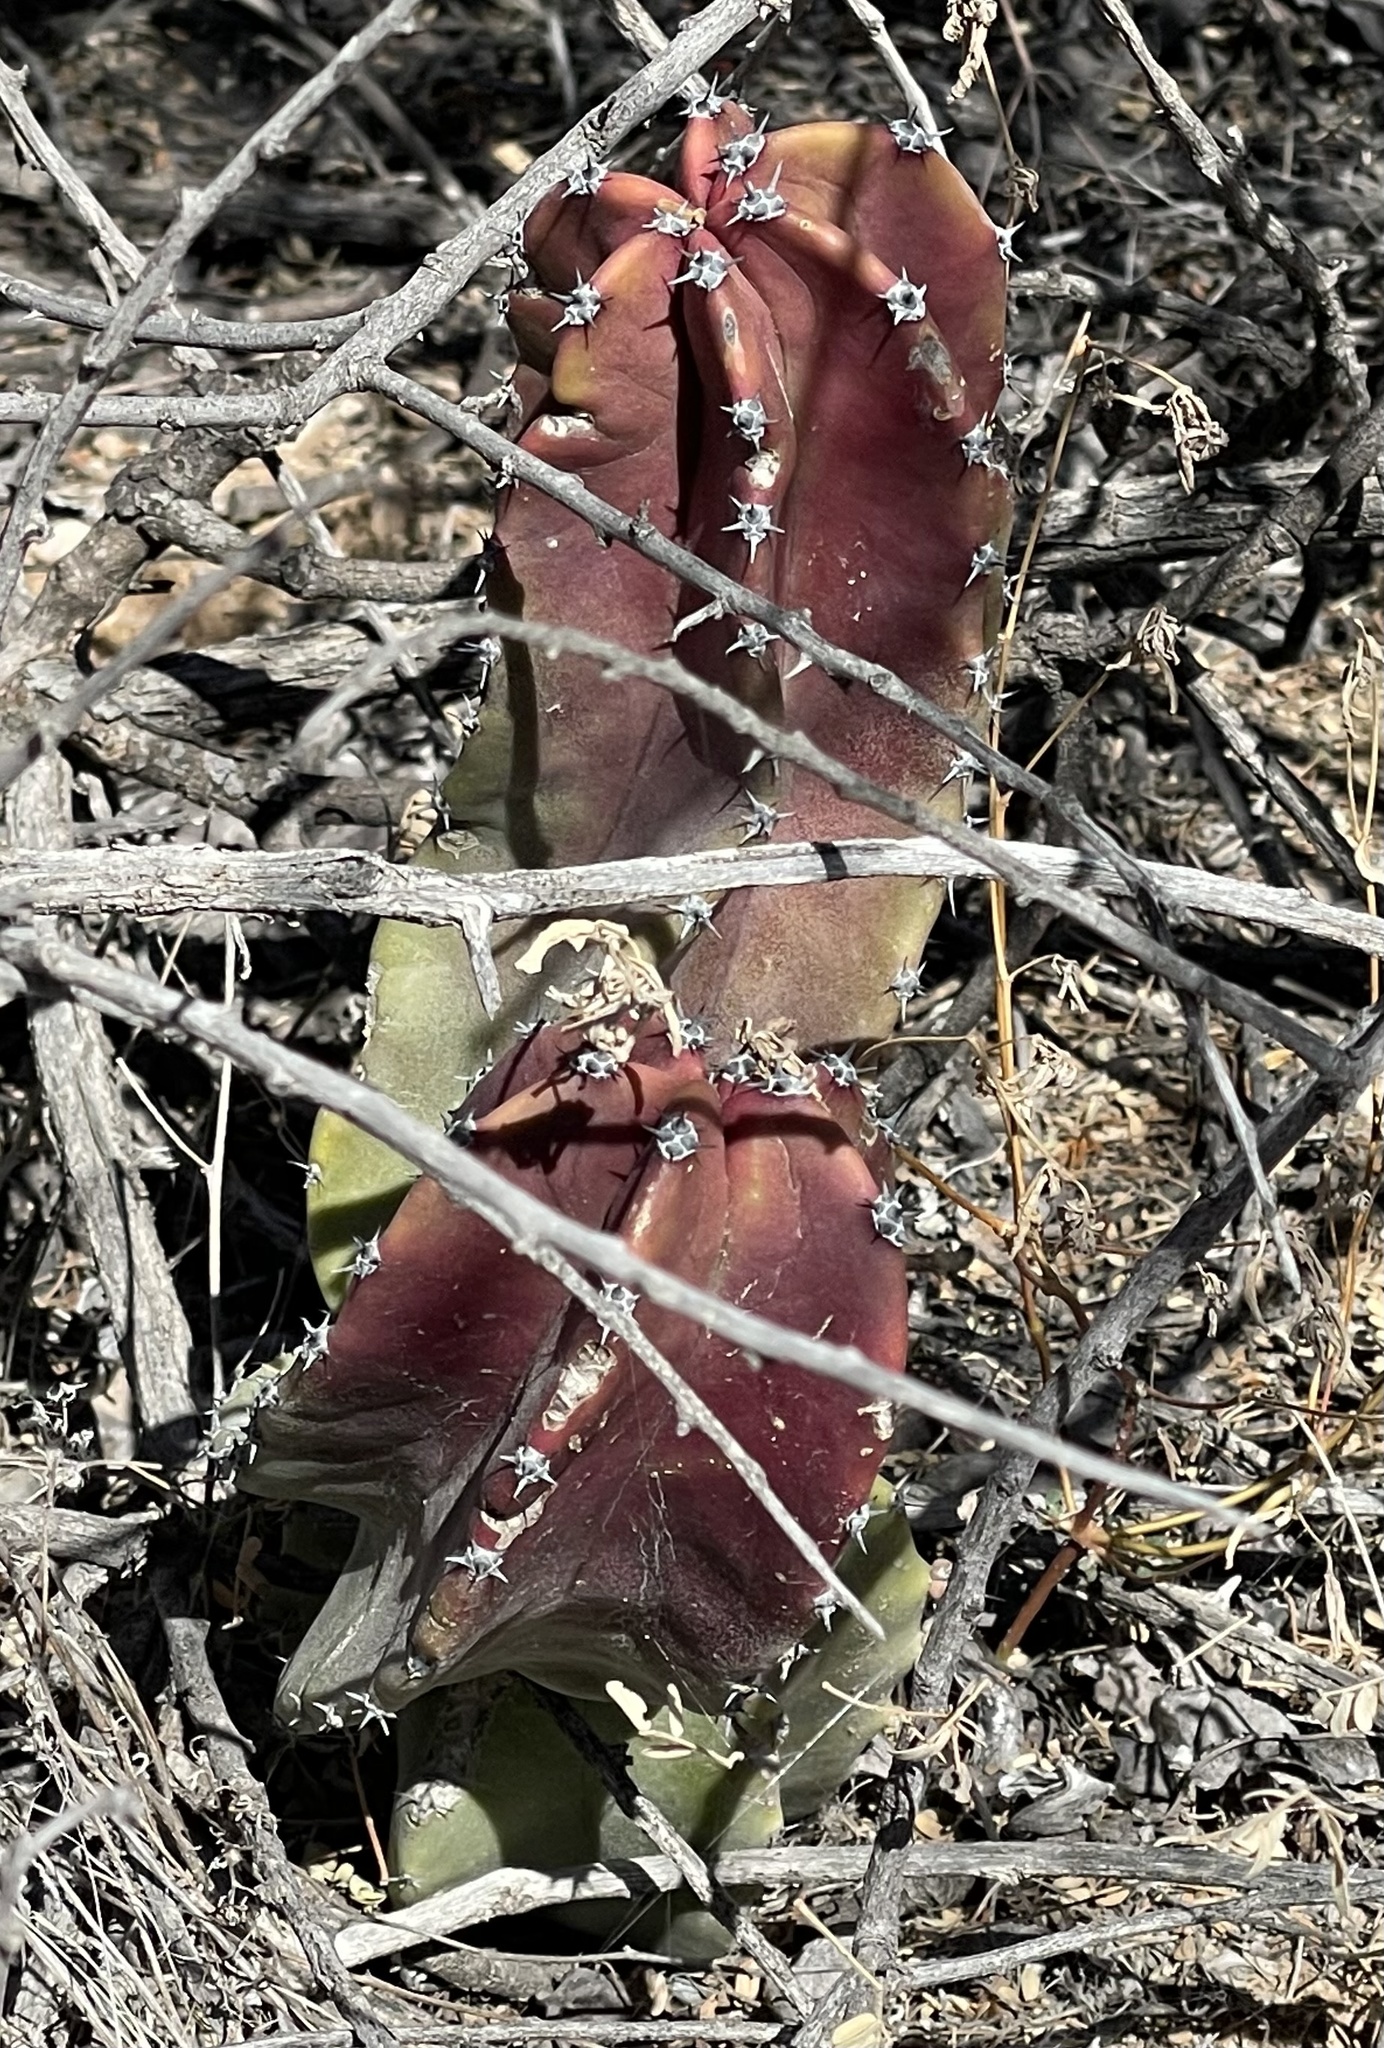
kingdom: Plantae
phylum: Tracheophyta
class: Magnoliopsida
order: Caryophyllales
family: Cactaceae
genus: Pachycereus
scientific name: Pachycereus schottii
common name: Senita cactus
